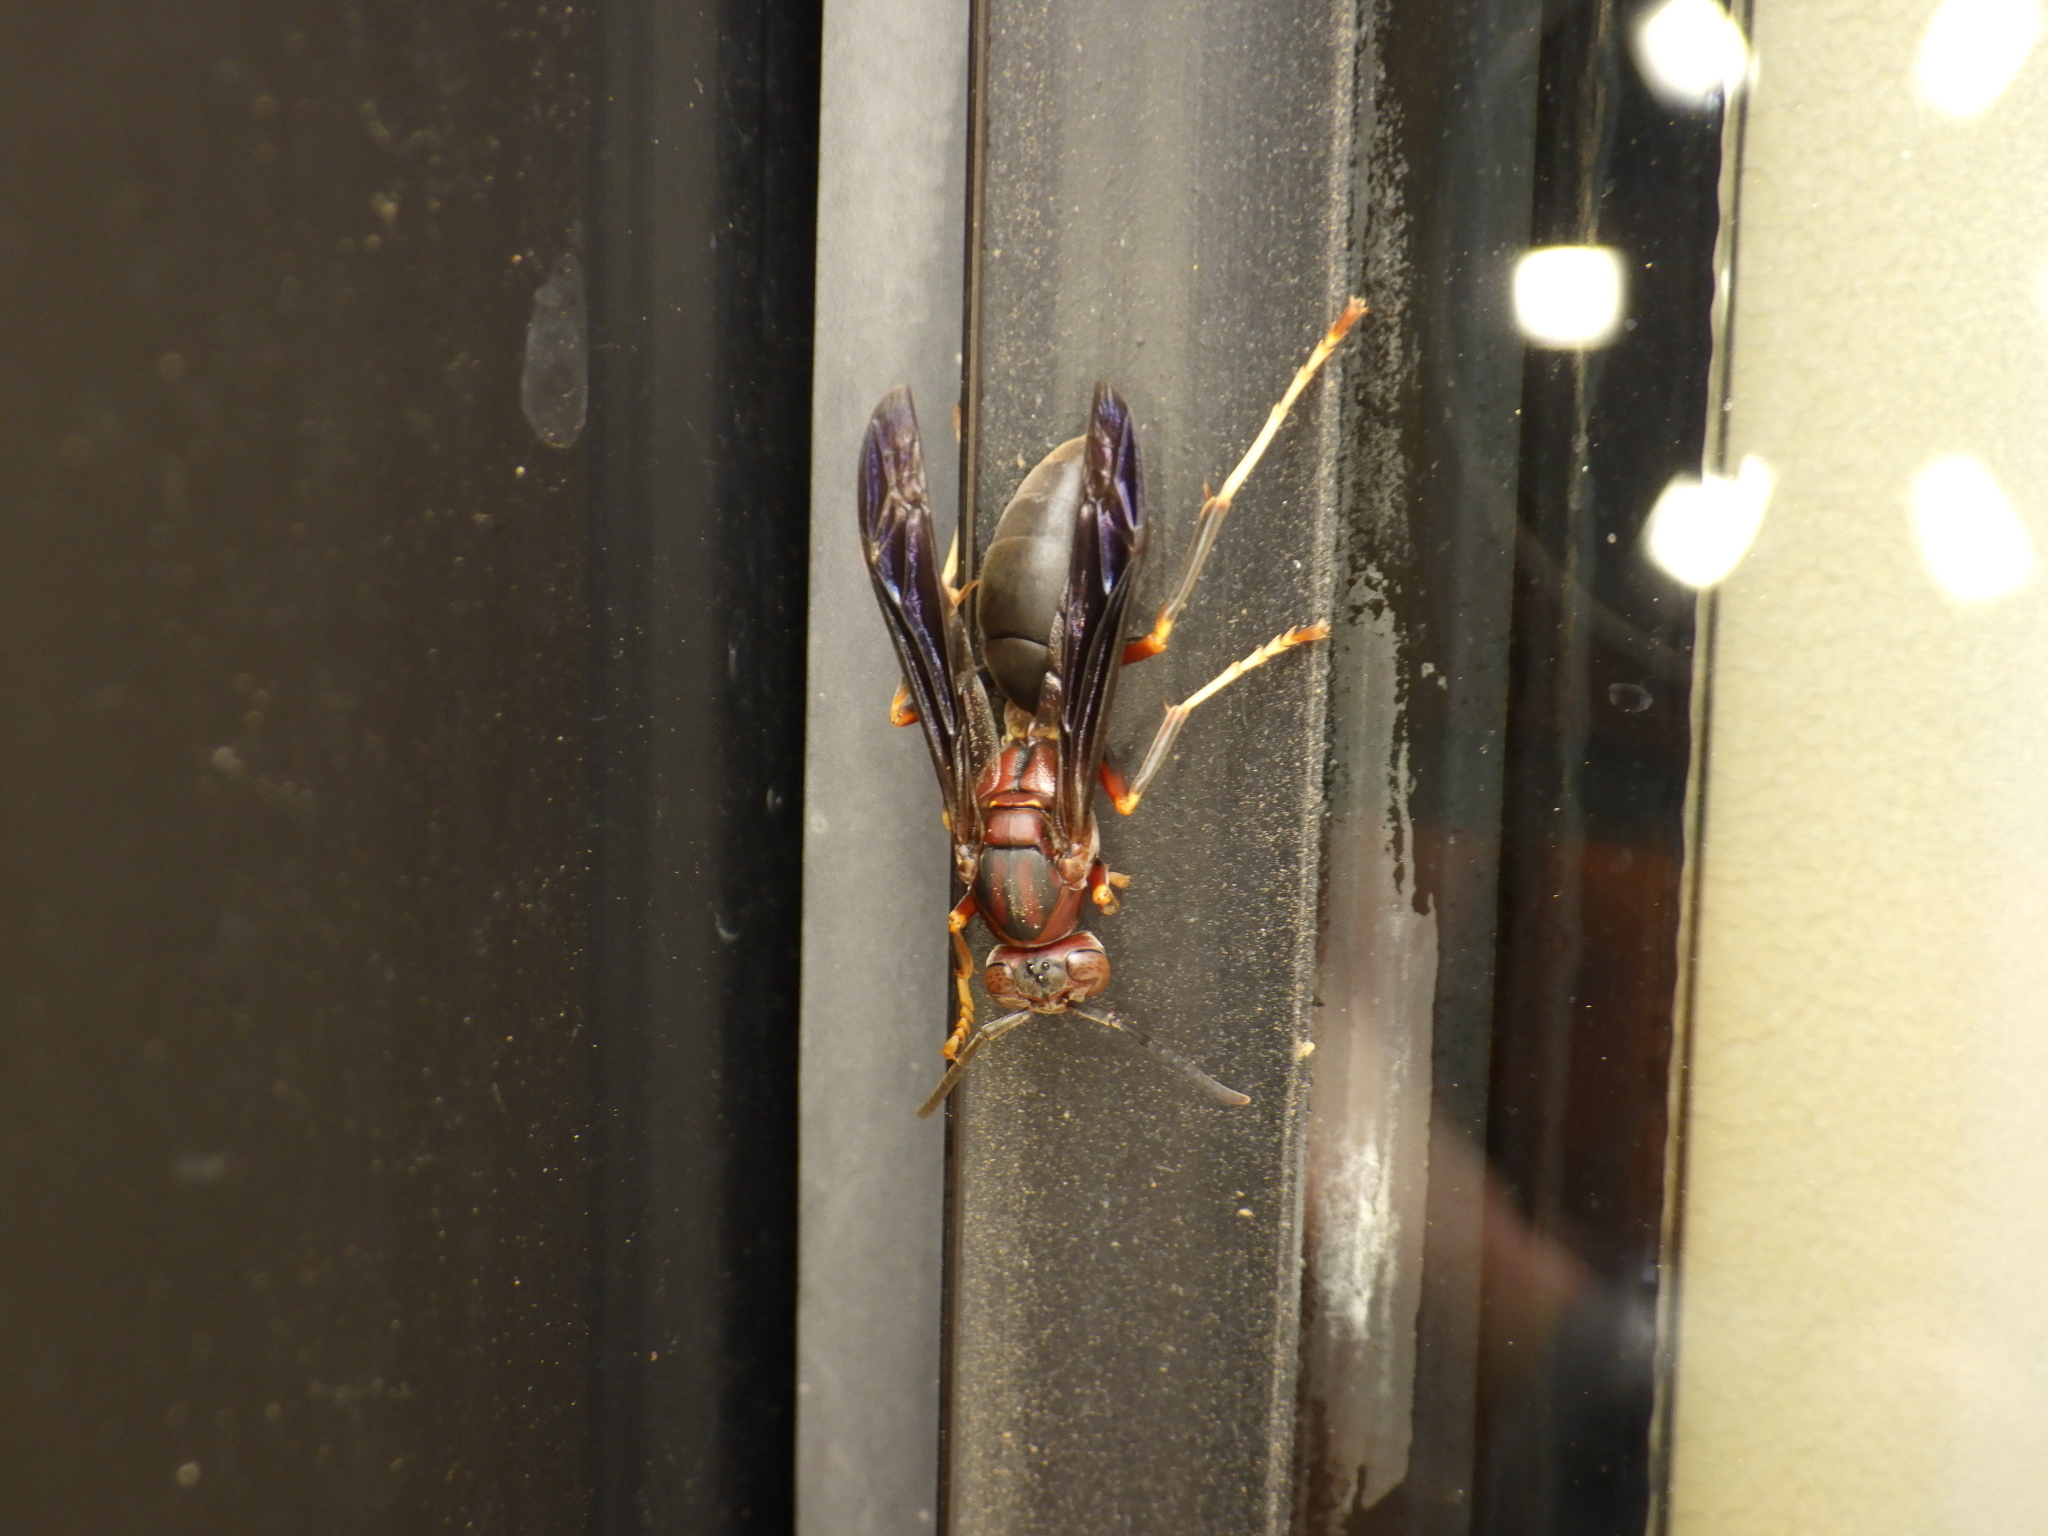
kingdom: Animalia
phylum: Arthropoda
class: Insecta
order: Hymenoptera
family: Eumenidae
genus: Polistes
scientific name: Polistes metricus
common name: Metric paper wasp
